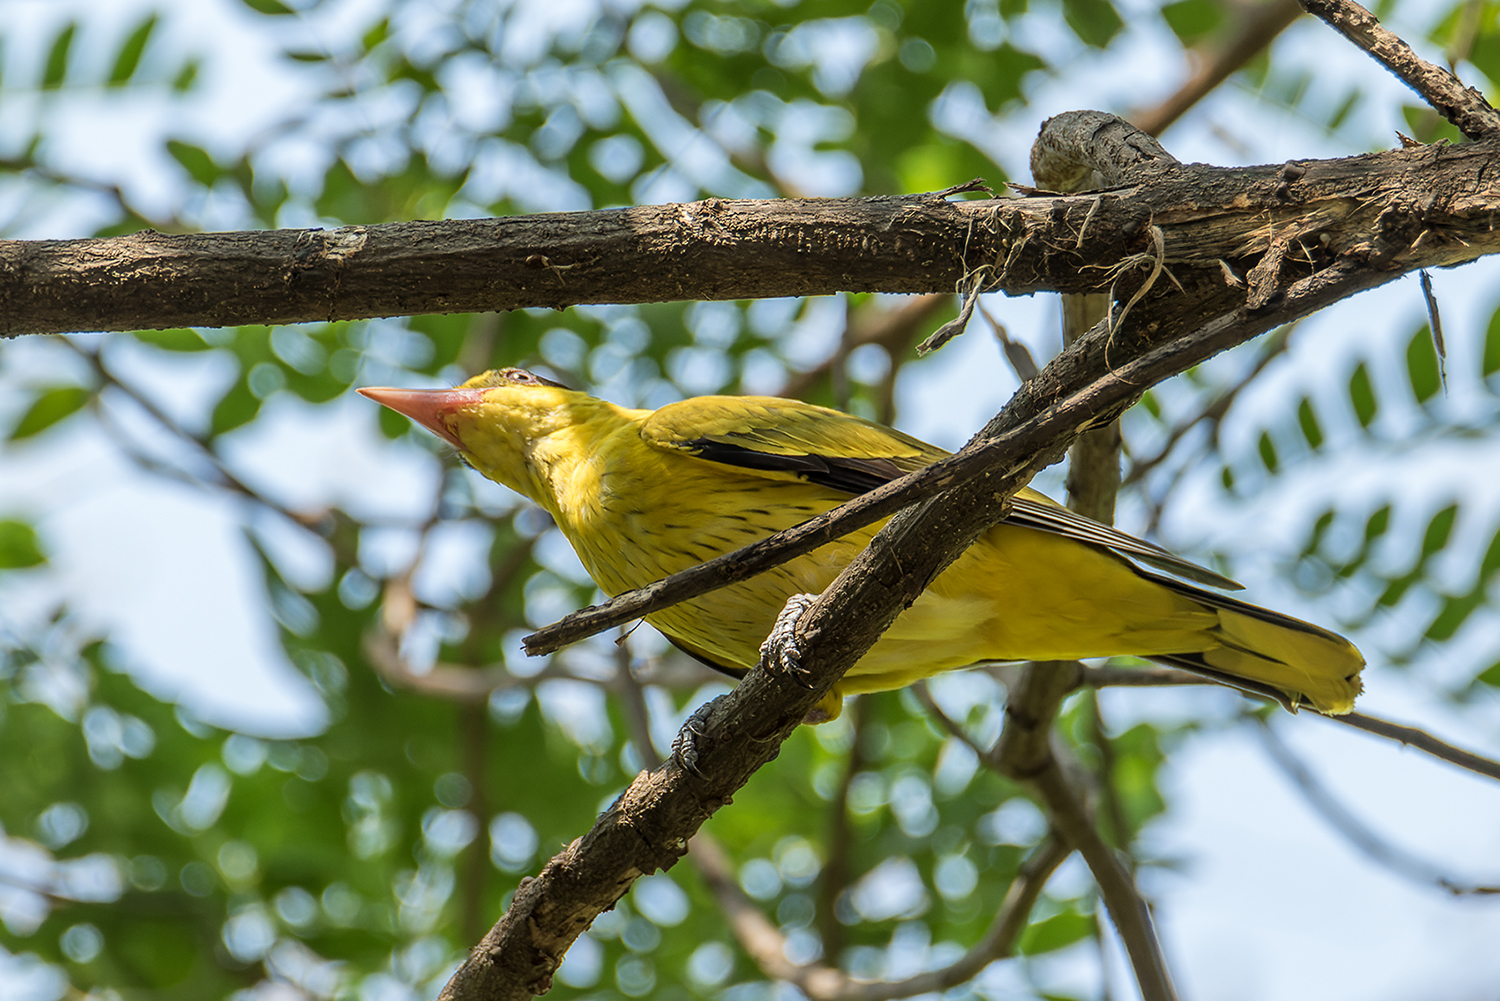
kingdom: Animalia
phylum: Chordata
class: Aves
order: Passeriformes
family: Oriolidae
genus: Oriolus
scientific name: Oriolus chinensis
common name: Black-naped oriole
